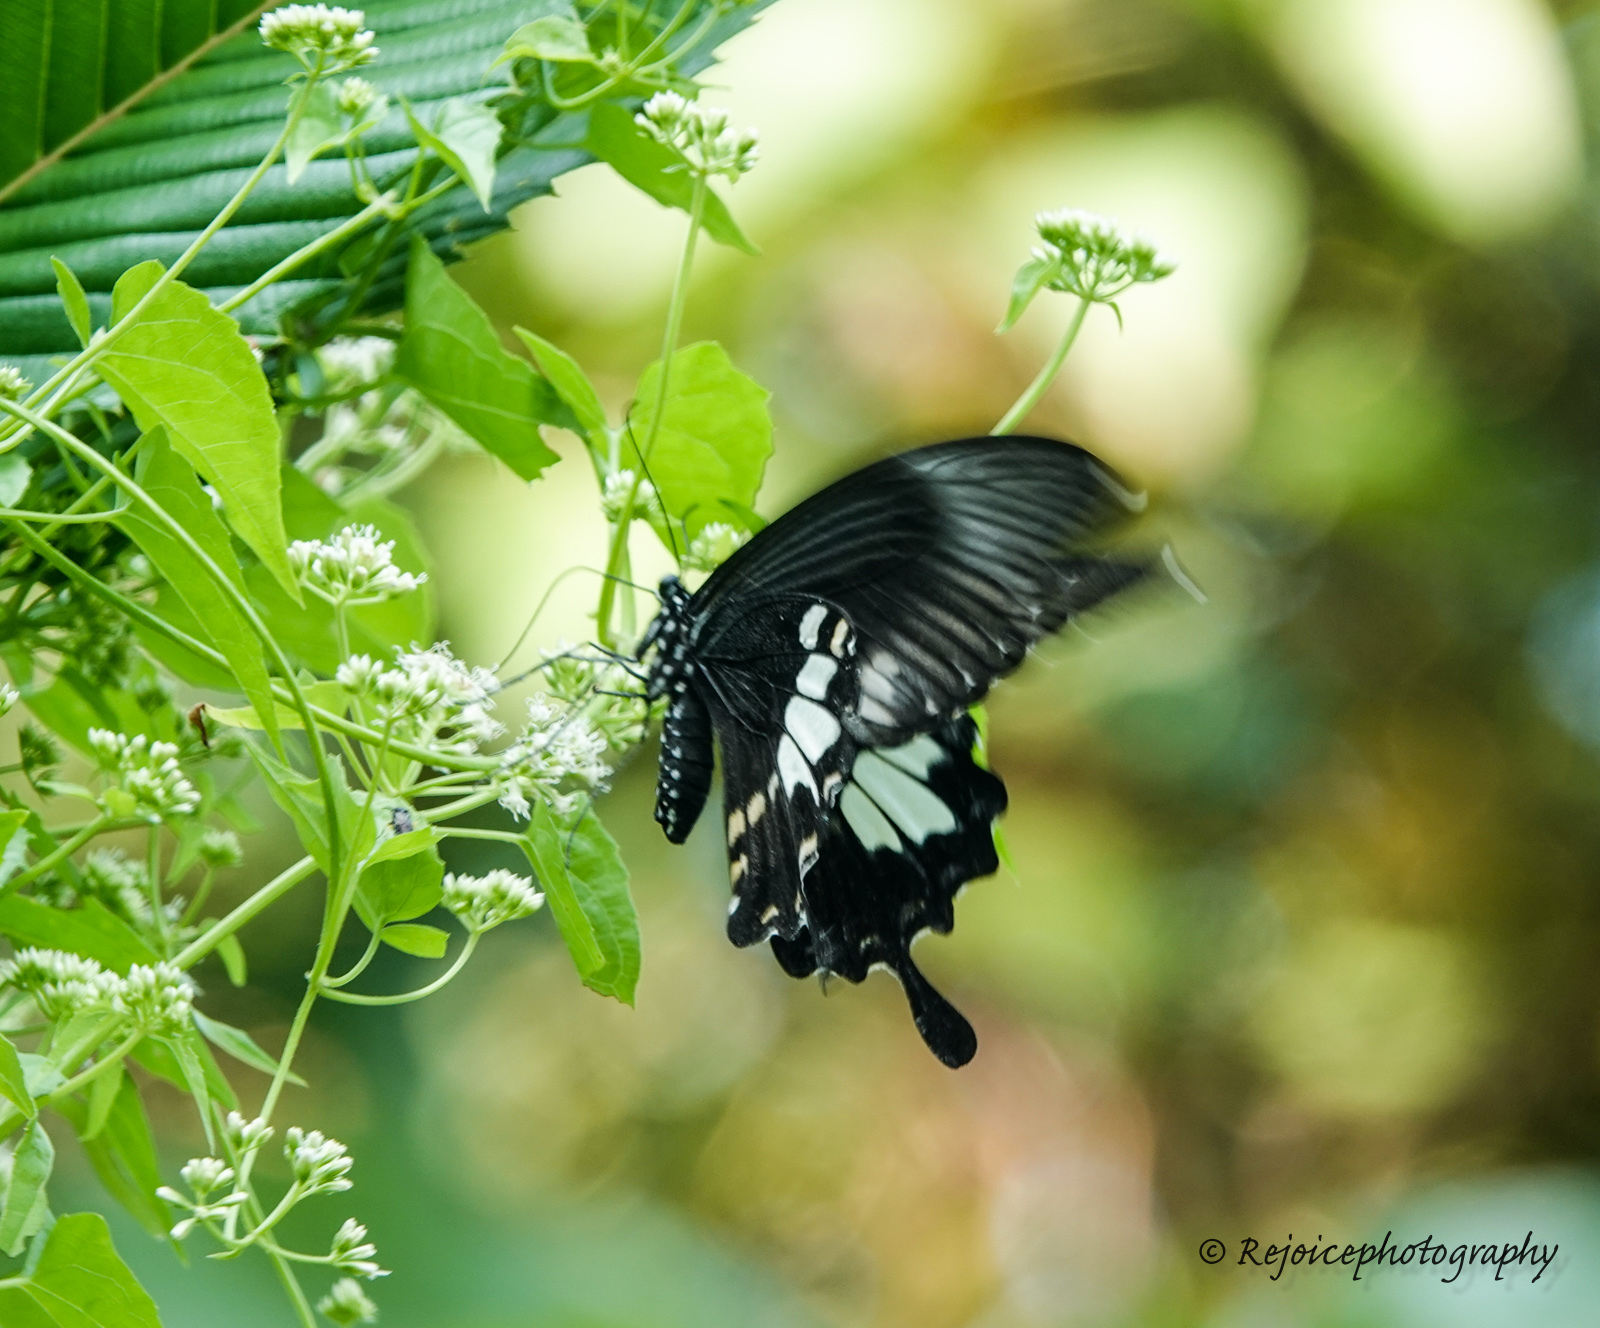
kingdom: Animalia
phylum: Arthropoda
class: Insecta
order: Lepidoptera
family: Papilionidae
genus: Papilio
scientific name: Papilio polytes
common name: Common mormon
